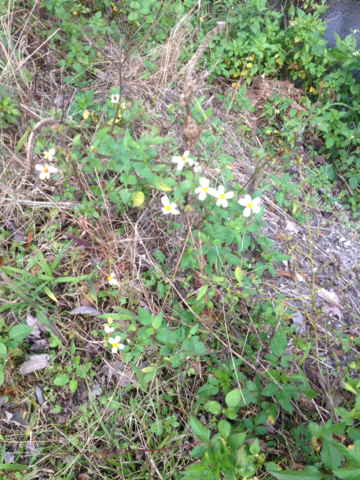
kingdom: Plantae
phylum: Tracheophyta
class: Magnoliopsida
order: Asterales
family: Asteraceae
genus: Bidens
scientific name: Bidens alba
